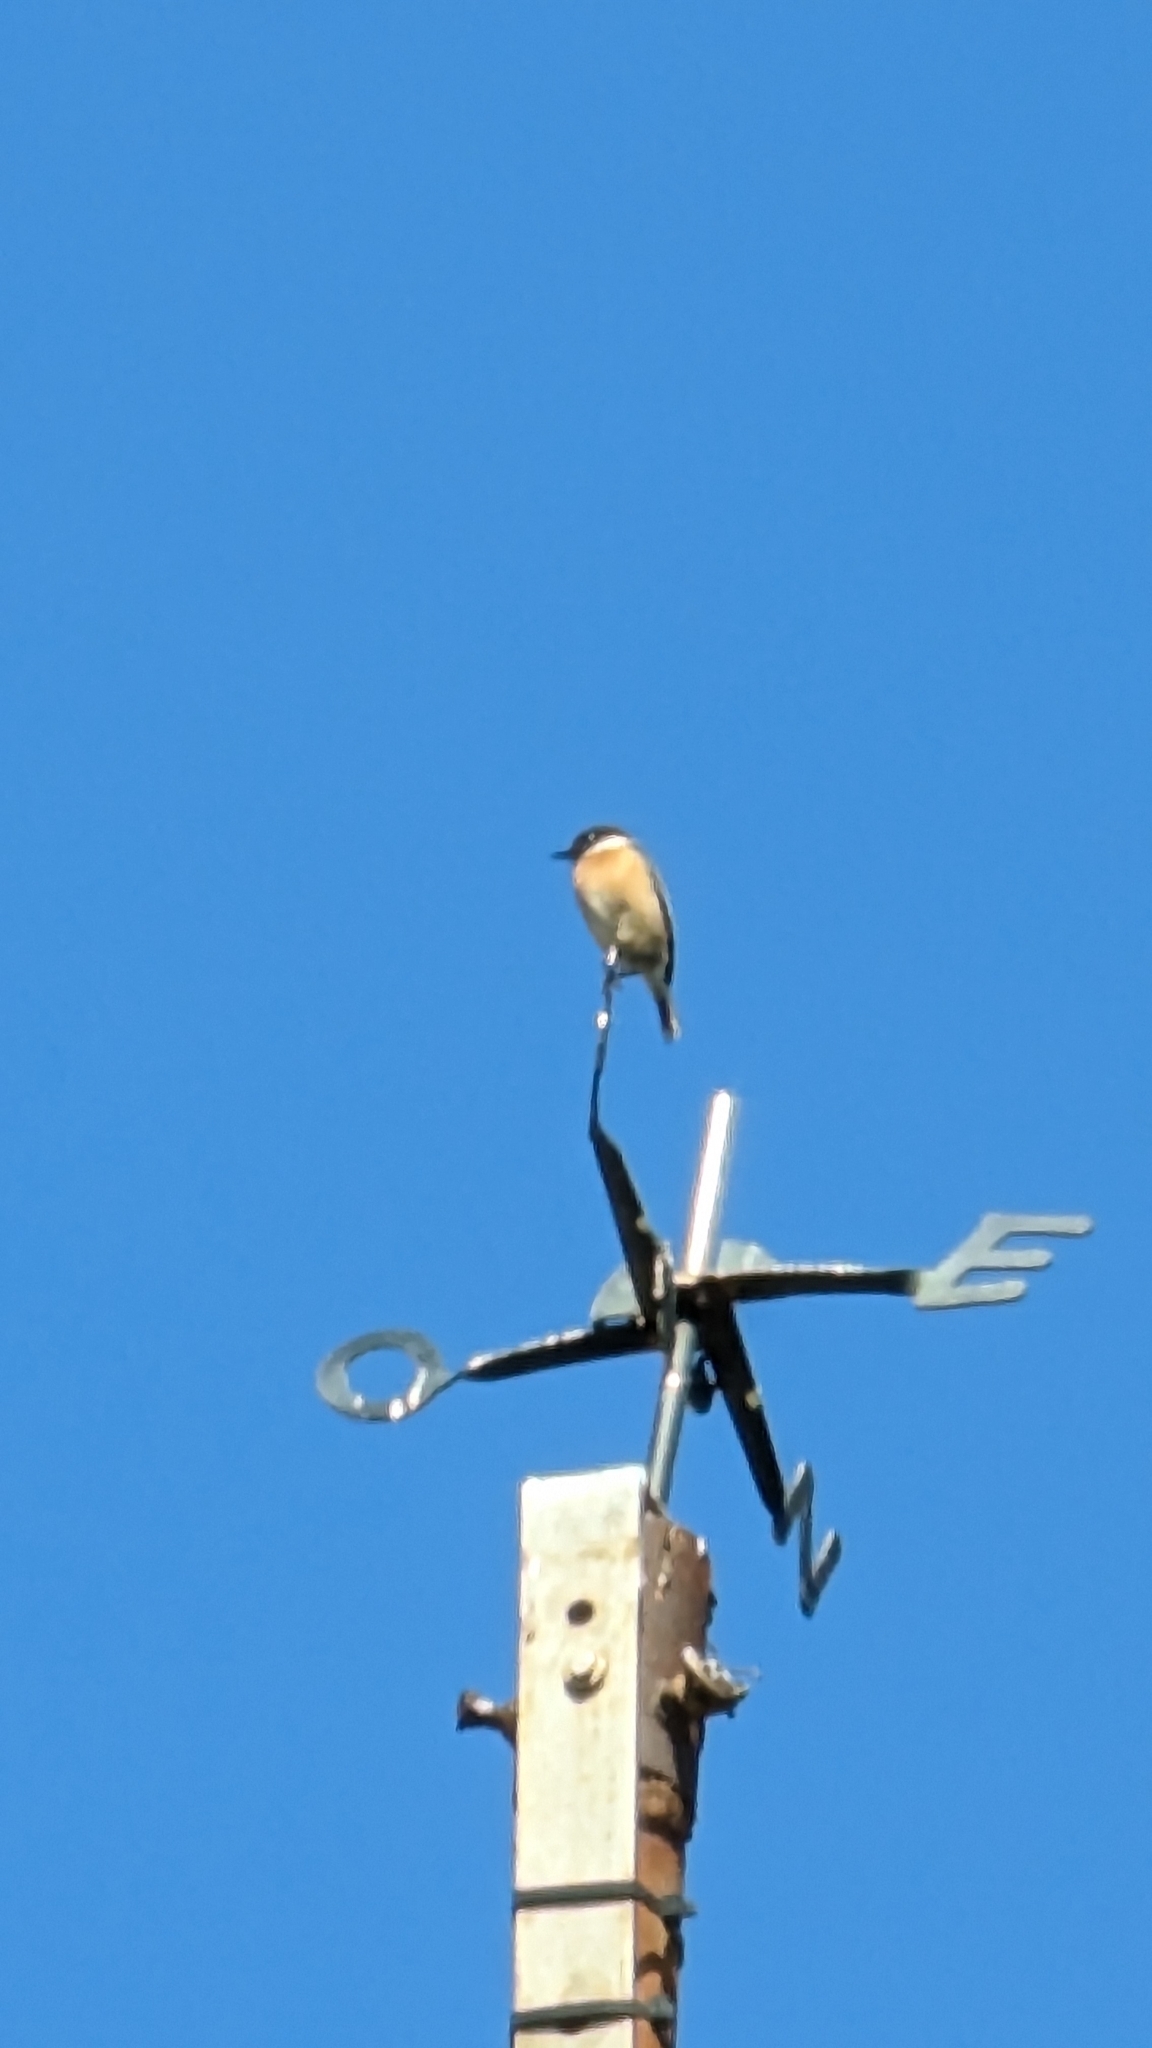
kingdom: Animalia
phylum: Chordata
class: Aves
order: Passeriformes
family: Muscicapidae
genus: Saxicola
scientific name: Saxicola rubicola
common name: European stonechat
